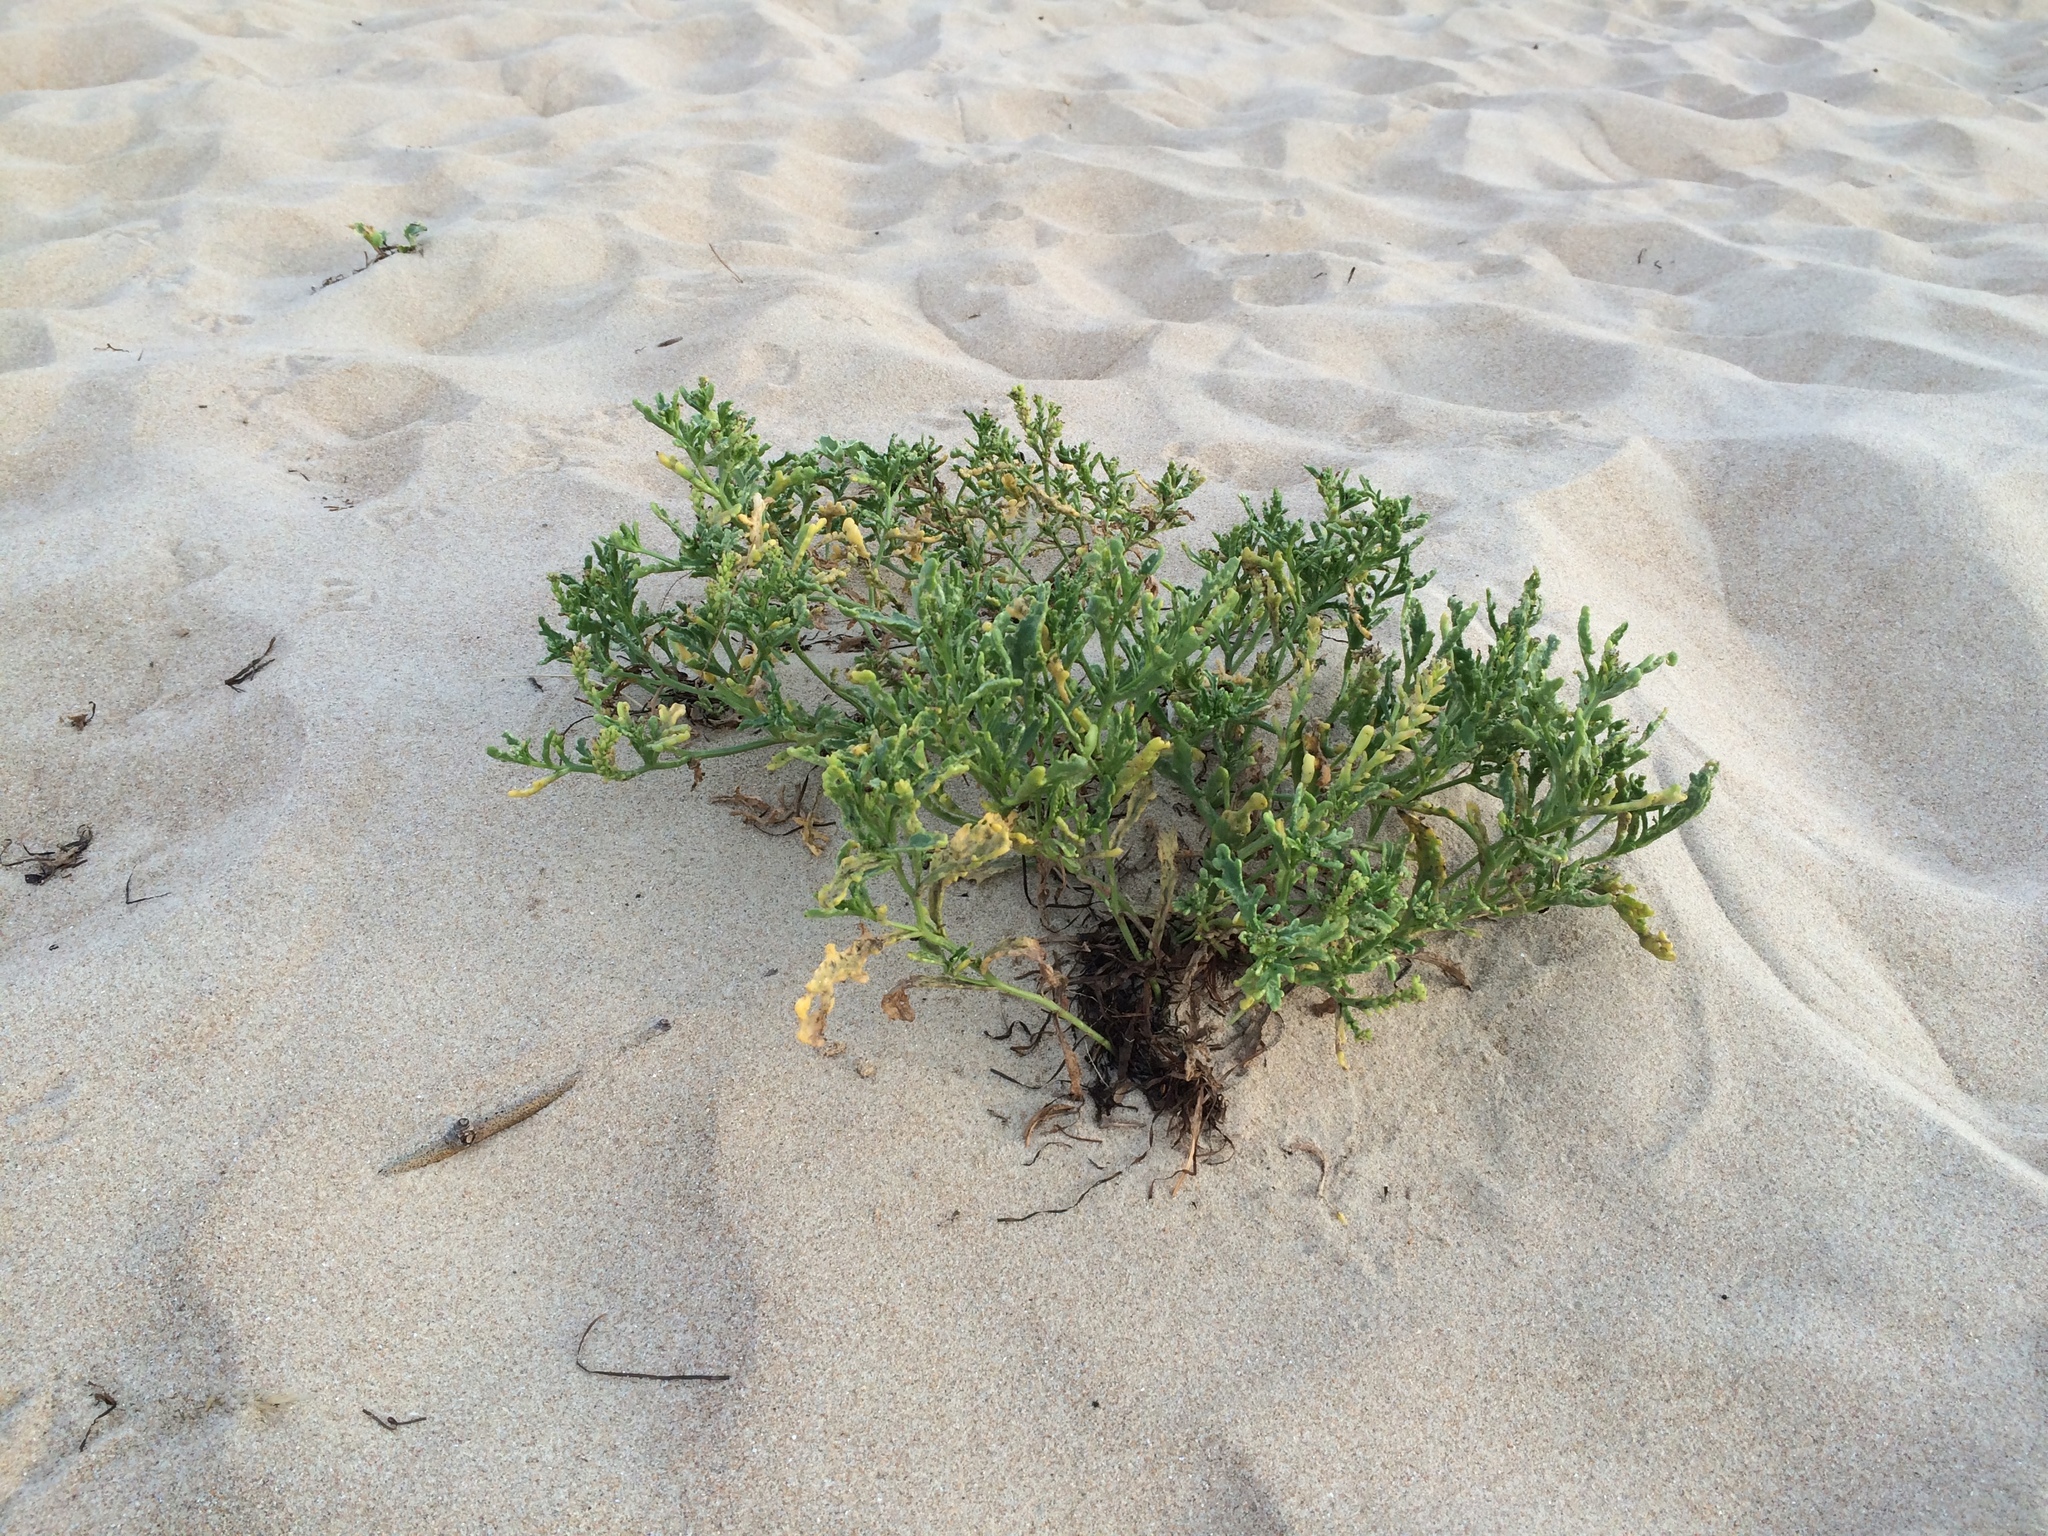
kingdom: Plantae
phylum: Tracheophyta
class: Magnoliopsida
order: Brassicales
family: Brassicaceae
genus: Cakile
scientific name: Cakile maritima
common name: Sea rocket
